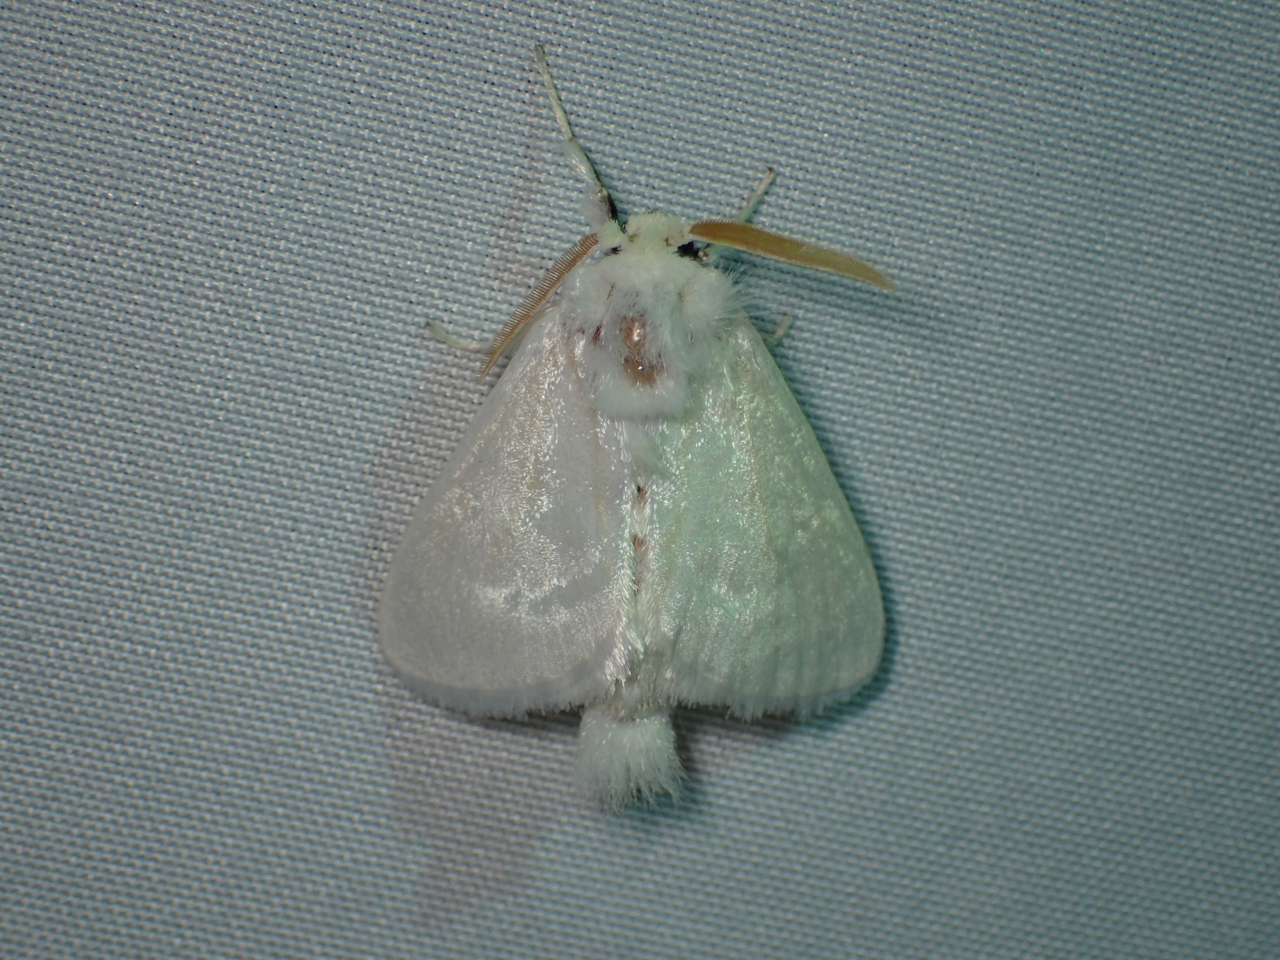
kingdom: Animalia
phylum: Arthropoda
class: Insecta
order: Lepidoptera
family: Megalopygidae
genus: Norape
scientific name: Norape cretata
